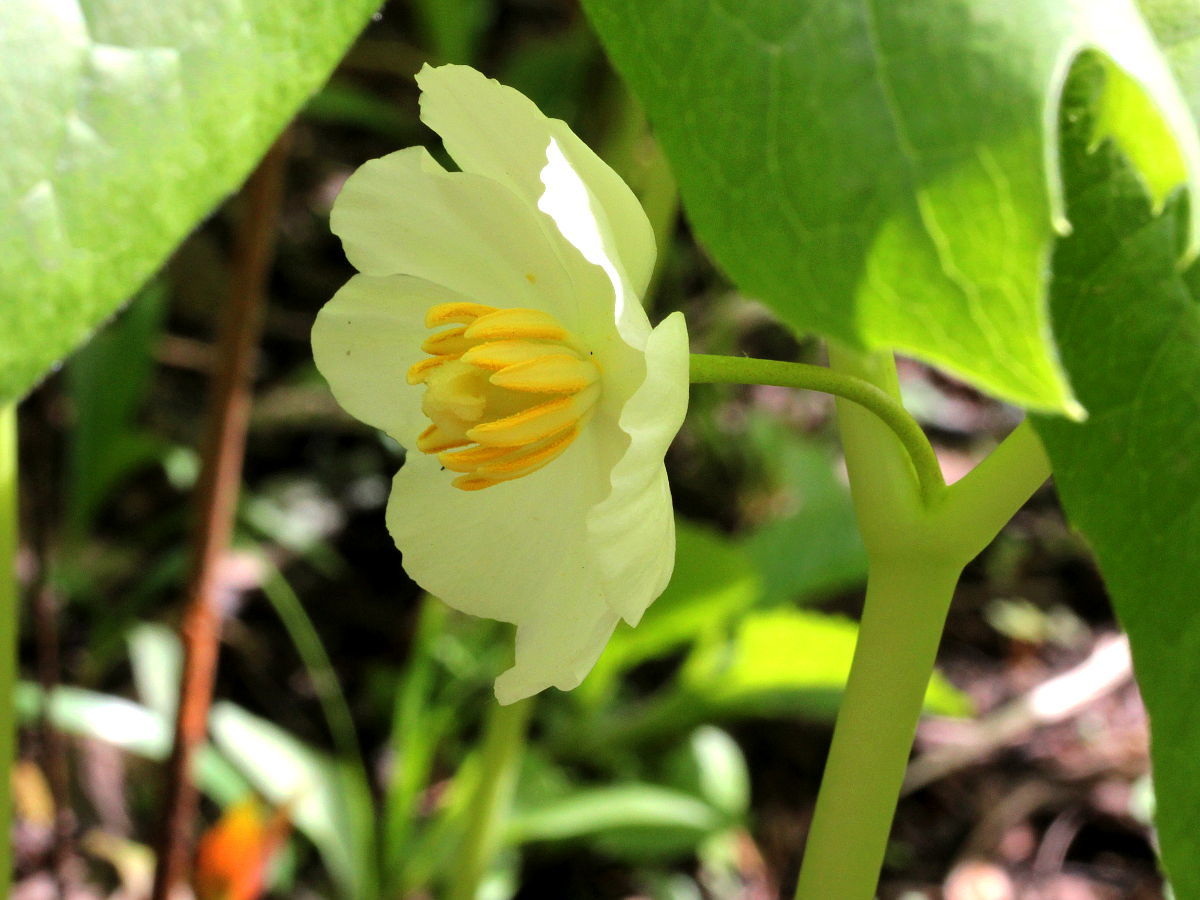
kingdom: Plantae
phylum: Tracheophyta
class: Magnoliopsida
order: Ranunculales
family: Berberidaceae
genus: Podophyllum
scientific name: Podophyllum peltatum
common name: Wild mandrake
